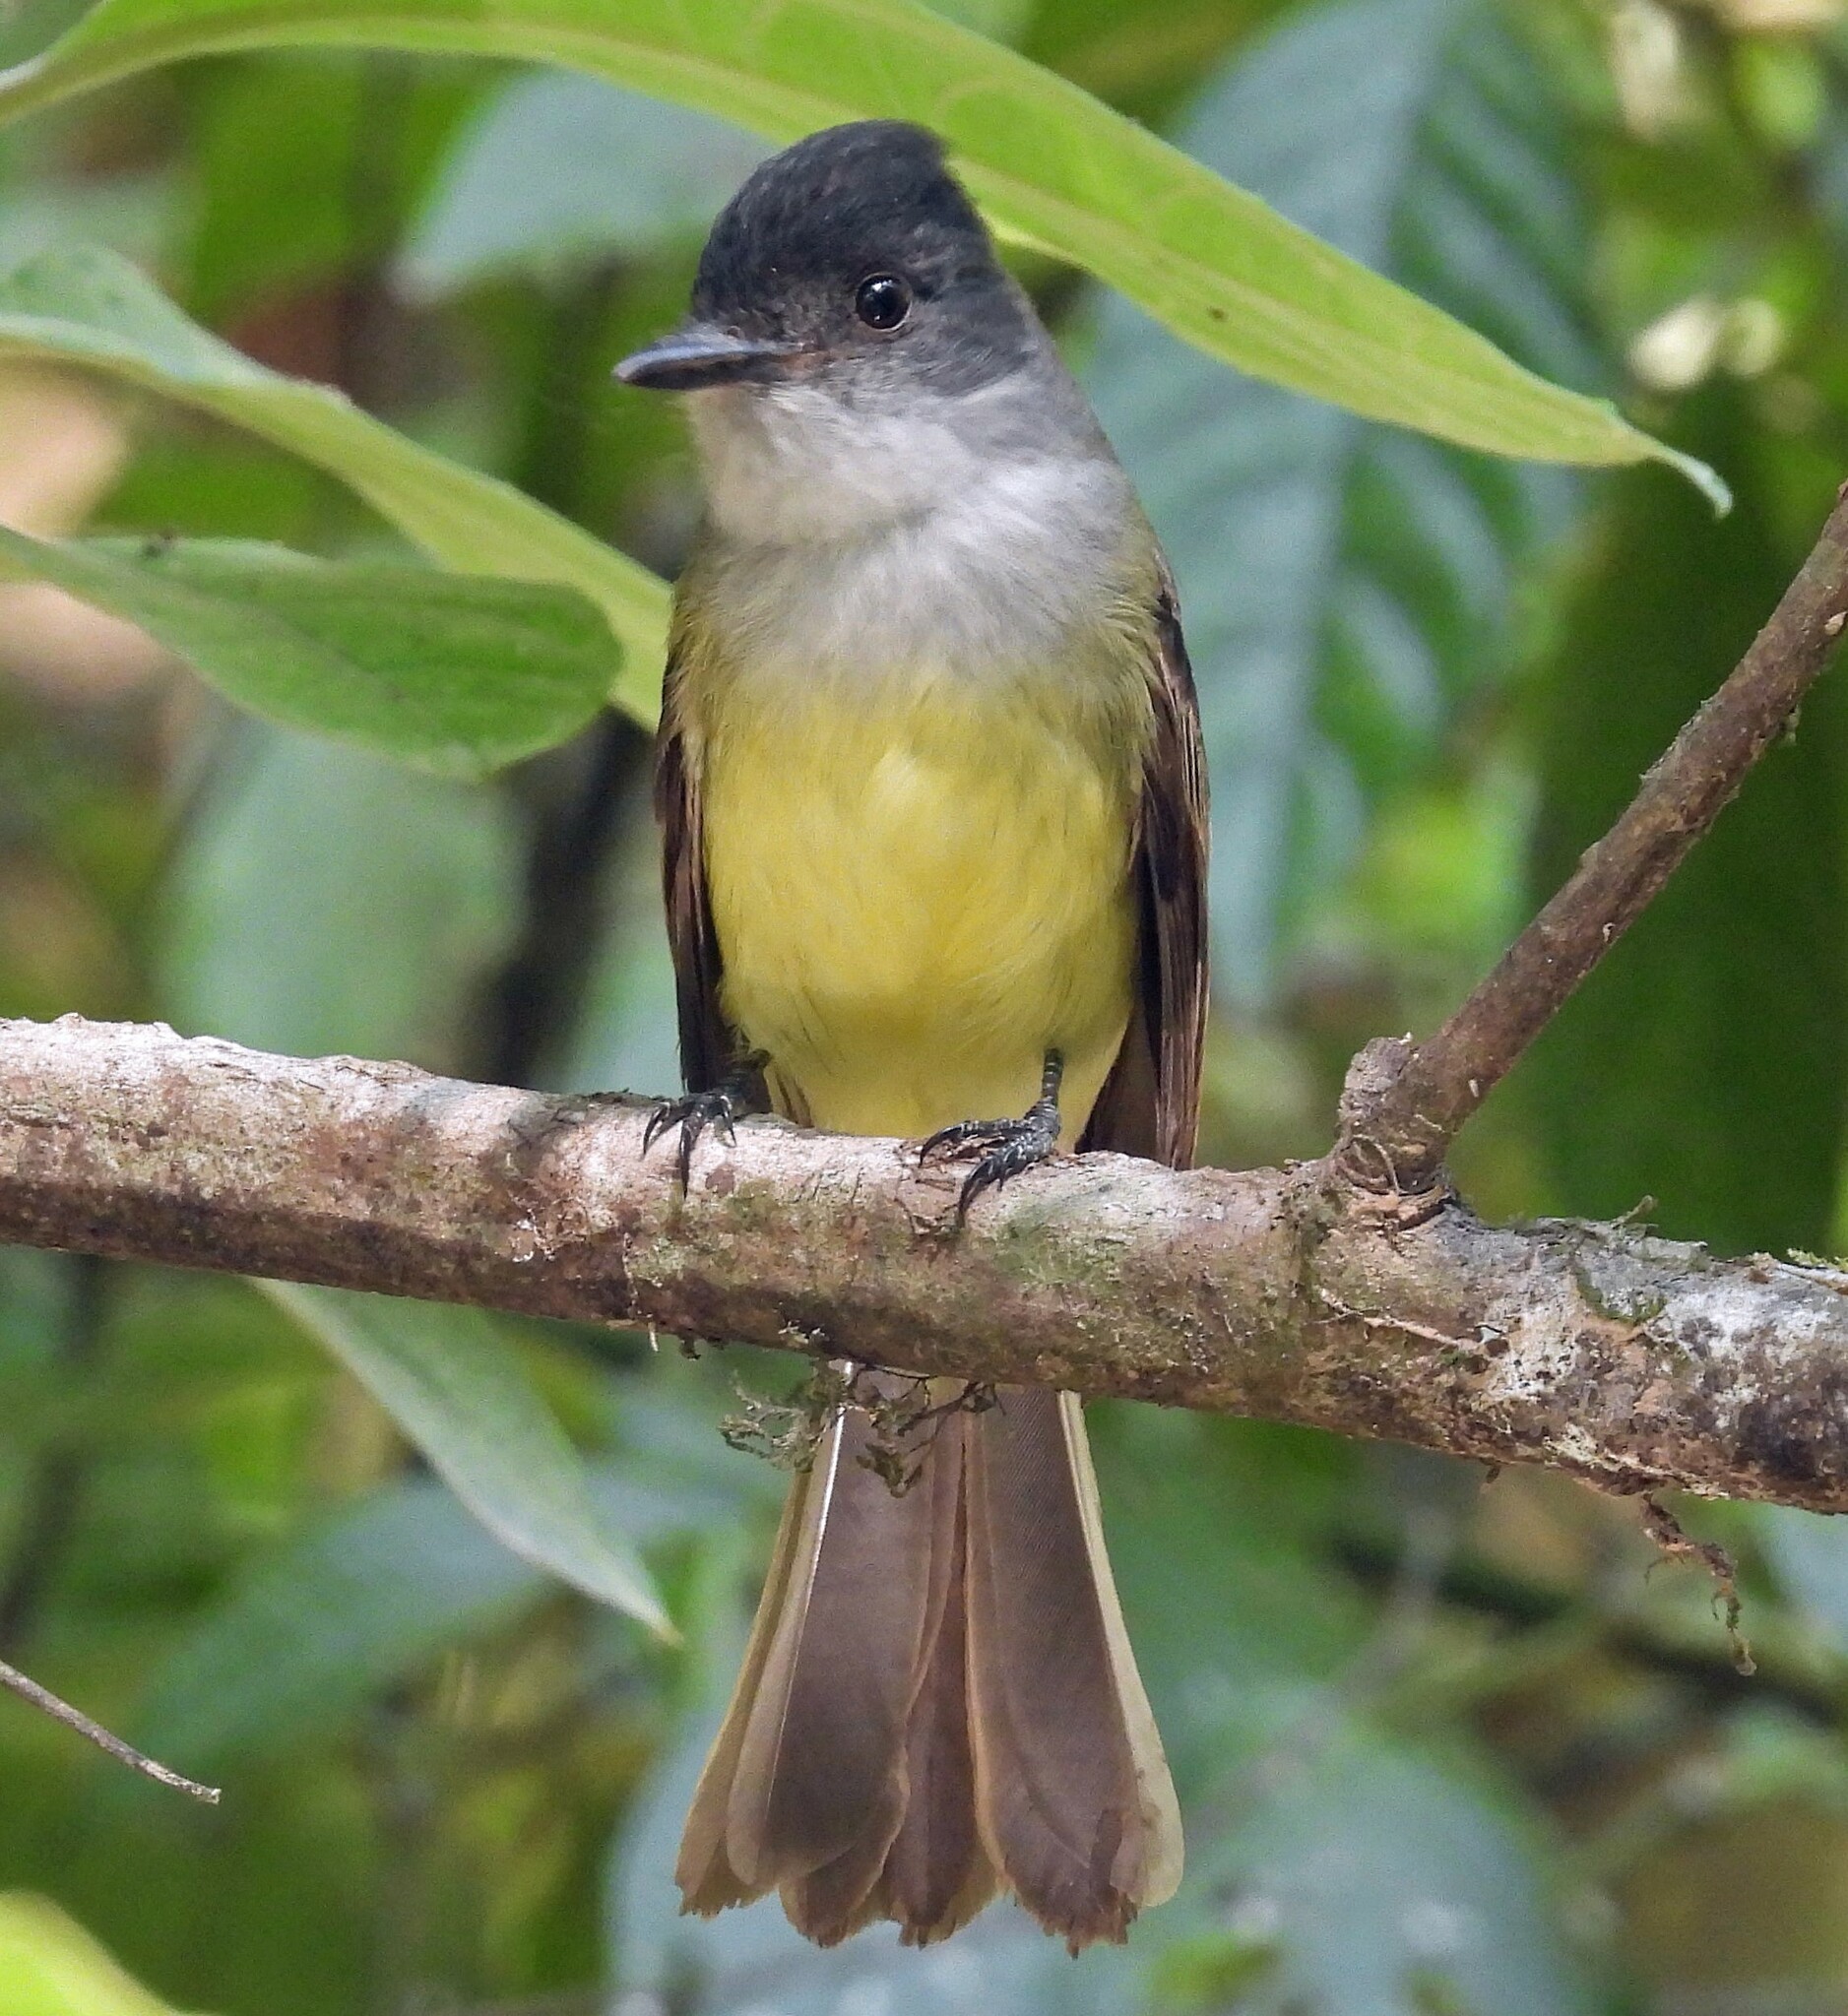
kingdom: Animalia
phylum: Chordata
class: Aves
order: Passeriformes
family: Tyrannidae
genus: Myiarchus
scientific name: Myiarchus tuberculifer
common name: Dusky-capped flycatcher
